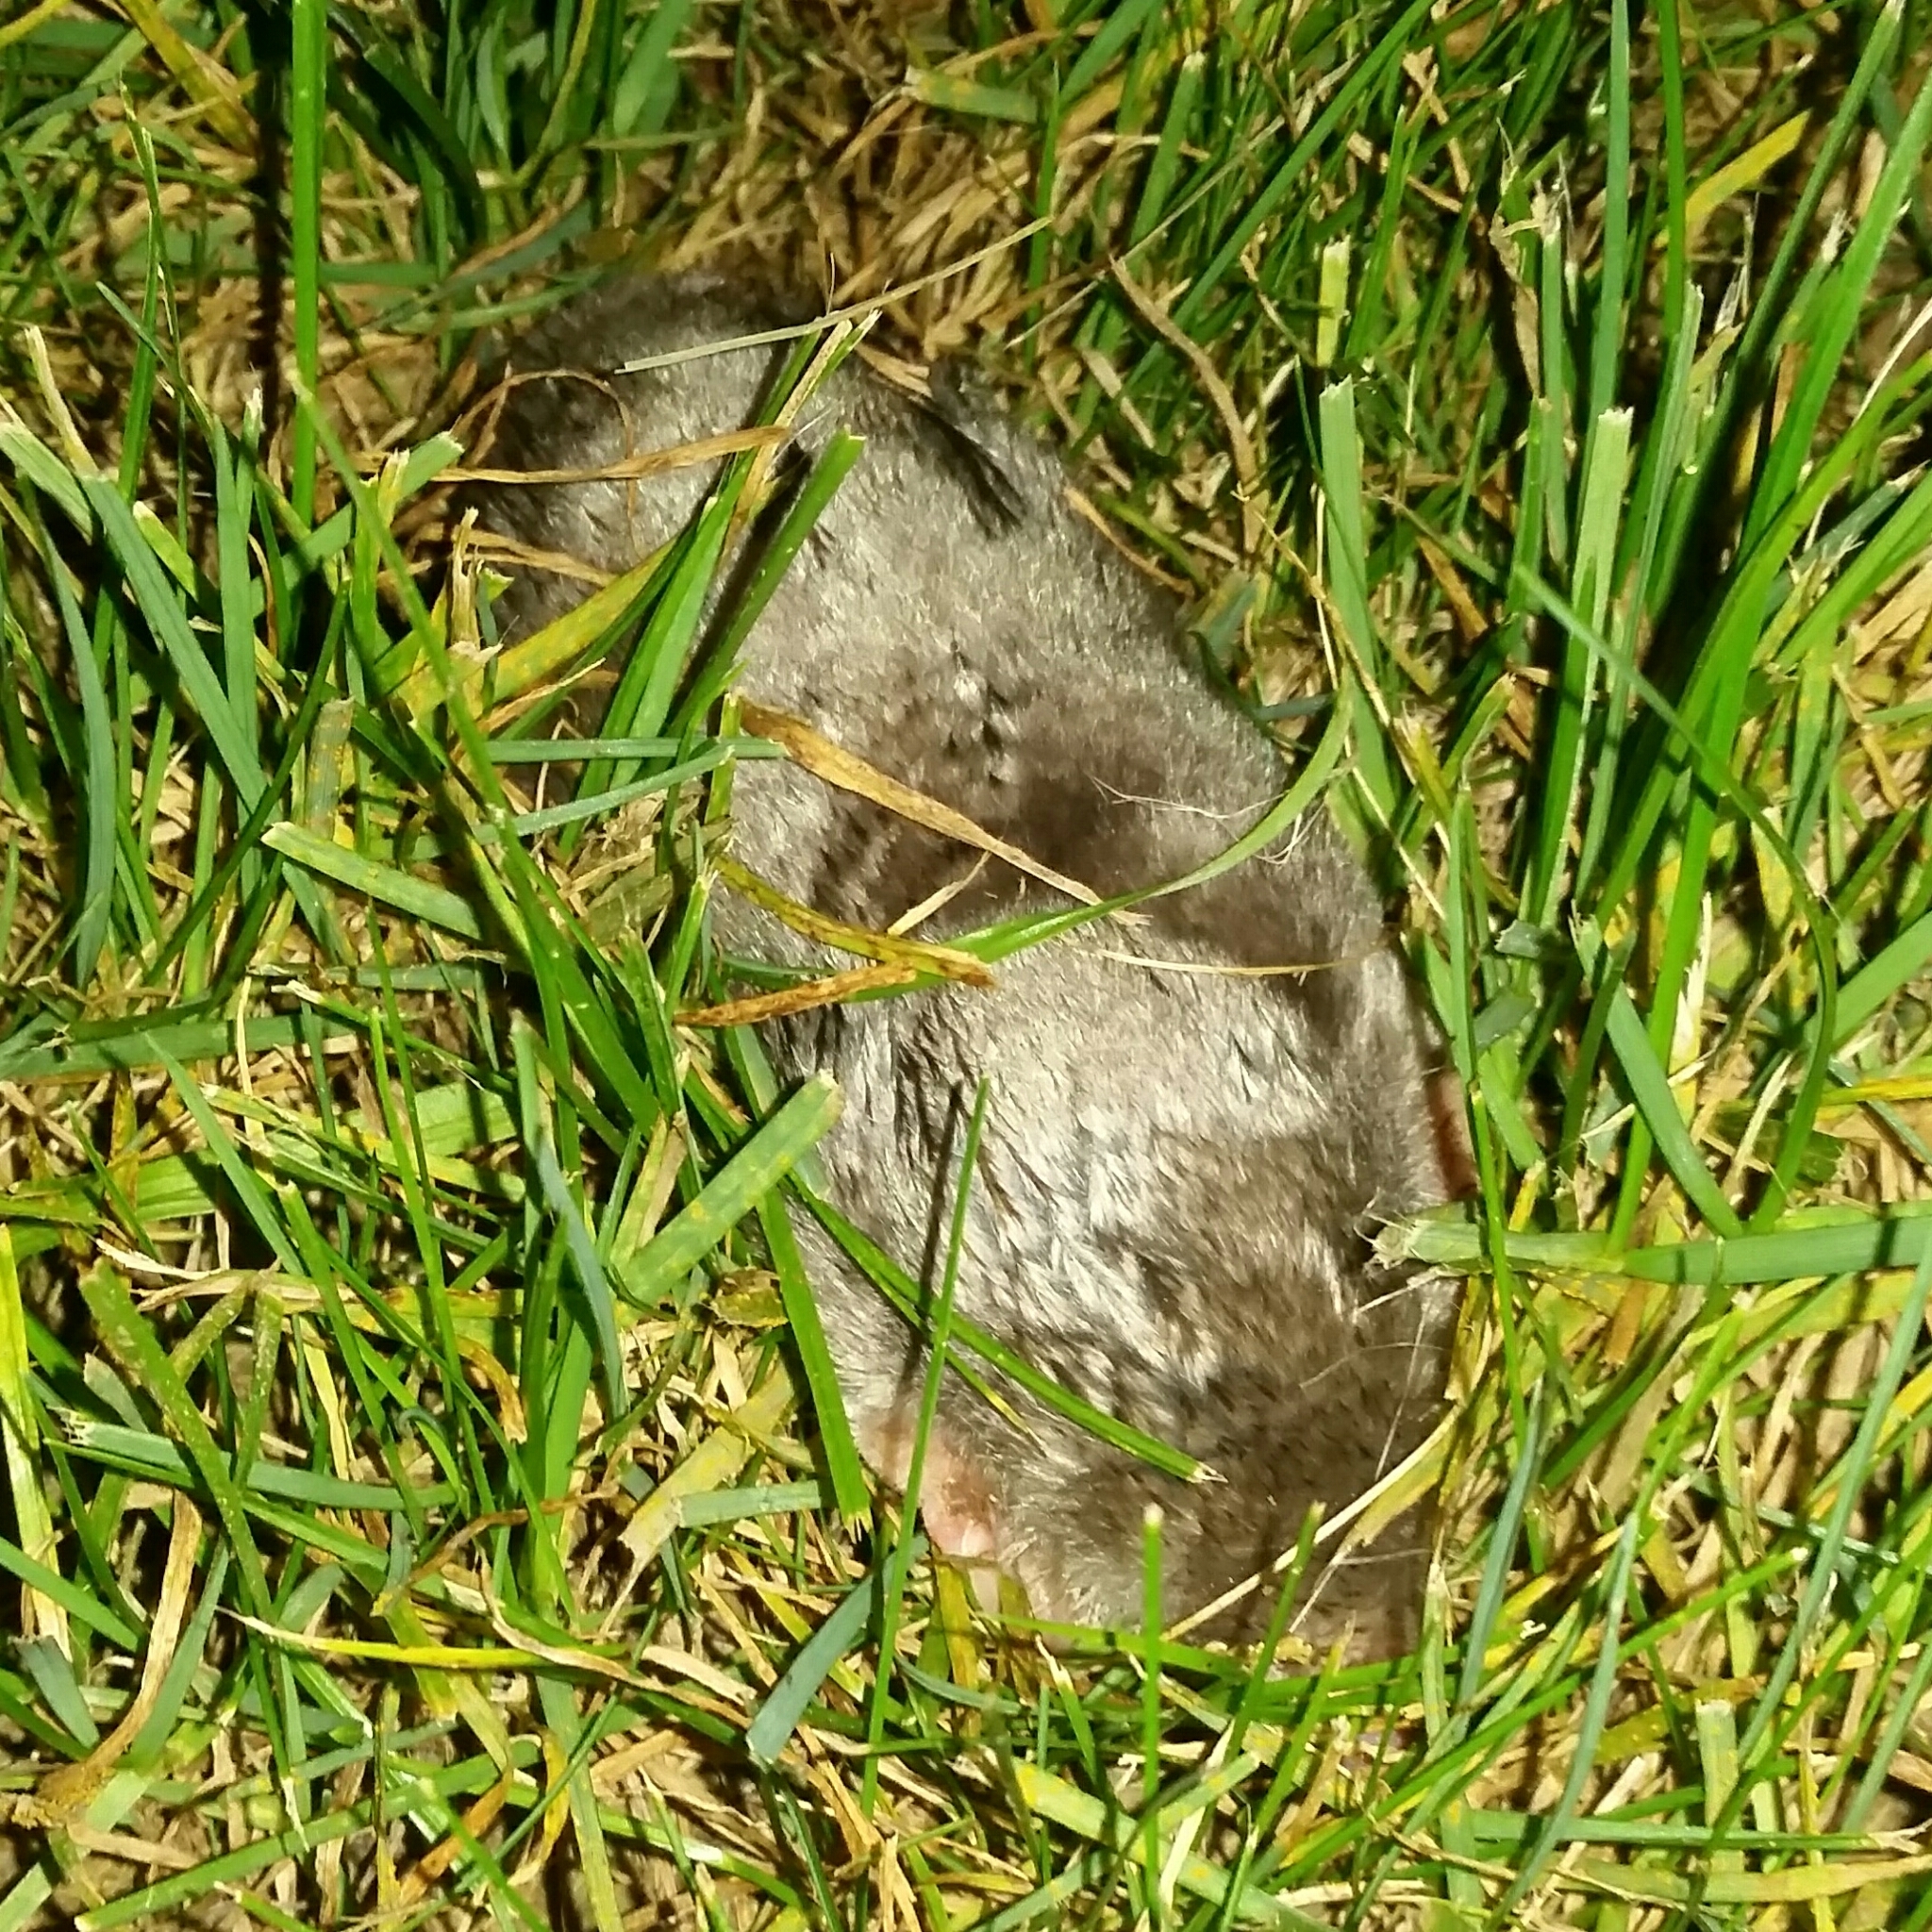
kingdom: Animalia
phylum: Chordata
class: Mammalia
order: Soricomorpha
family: Talpidae
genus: Scalopus
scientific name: Scalopus aquaticus
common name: Eastern mole
